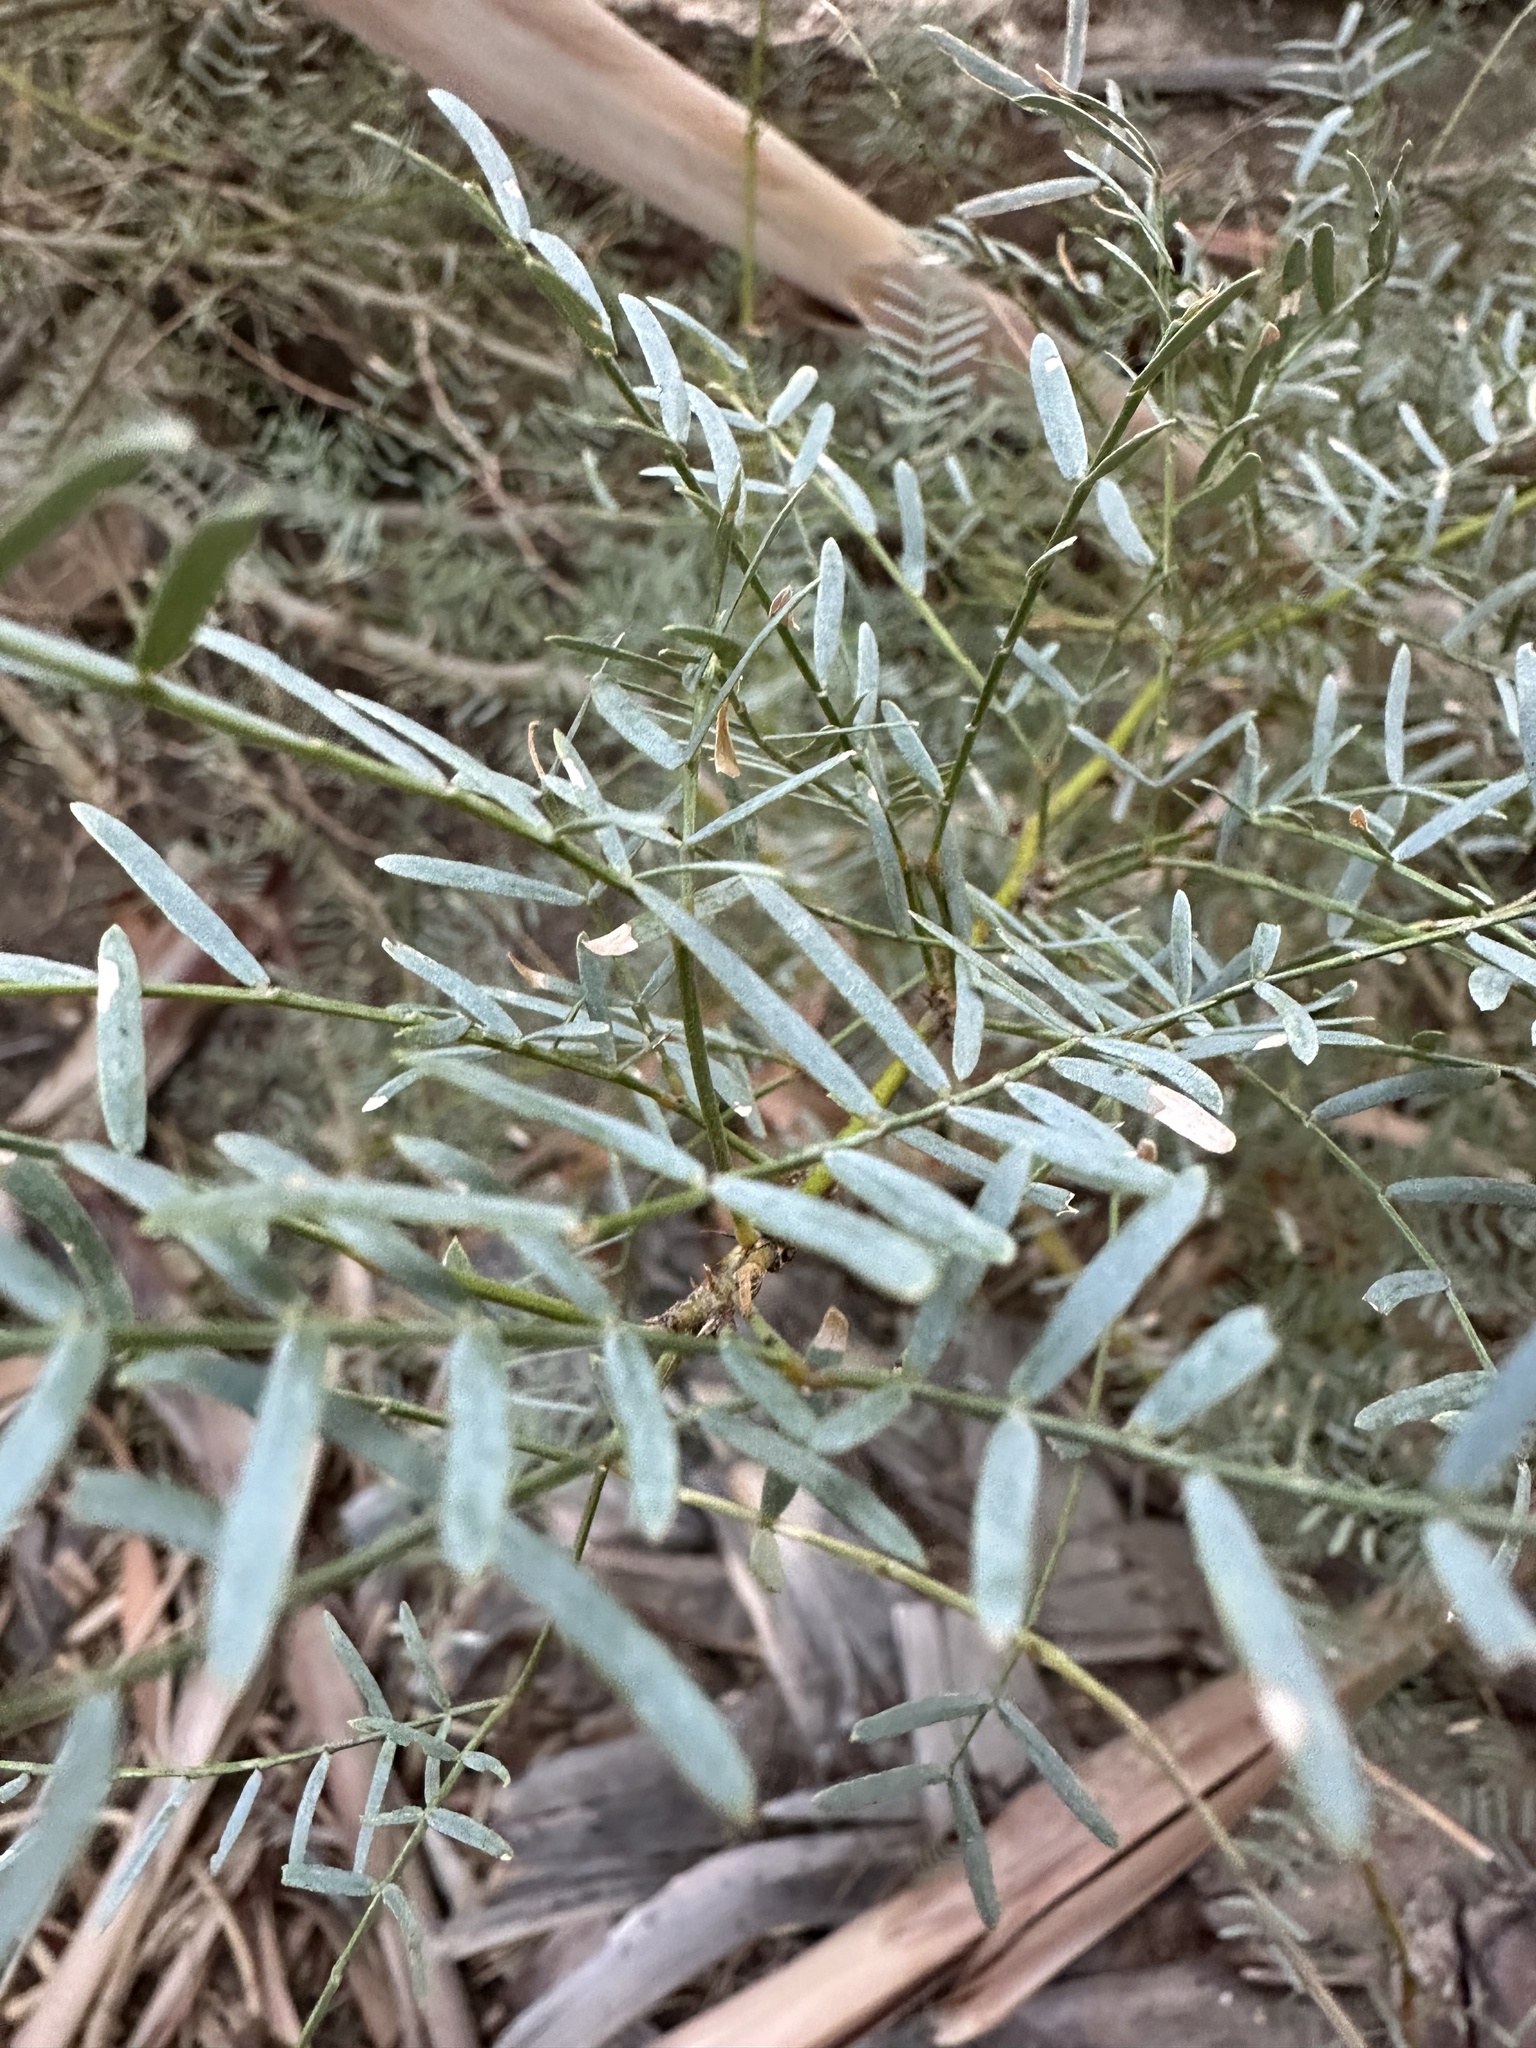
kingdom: Plantae
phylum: Tracheophyta
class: Magnoliopsida
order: Fabales
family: Fabaceae
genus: Prosopis
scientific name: Prosopis pubescens
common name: Screw-bean
